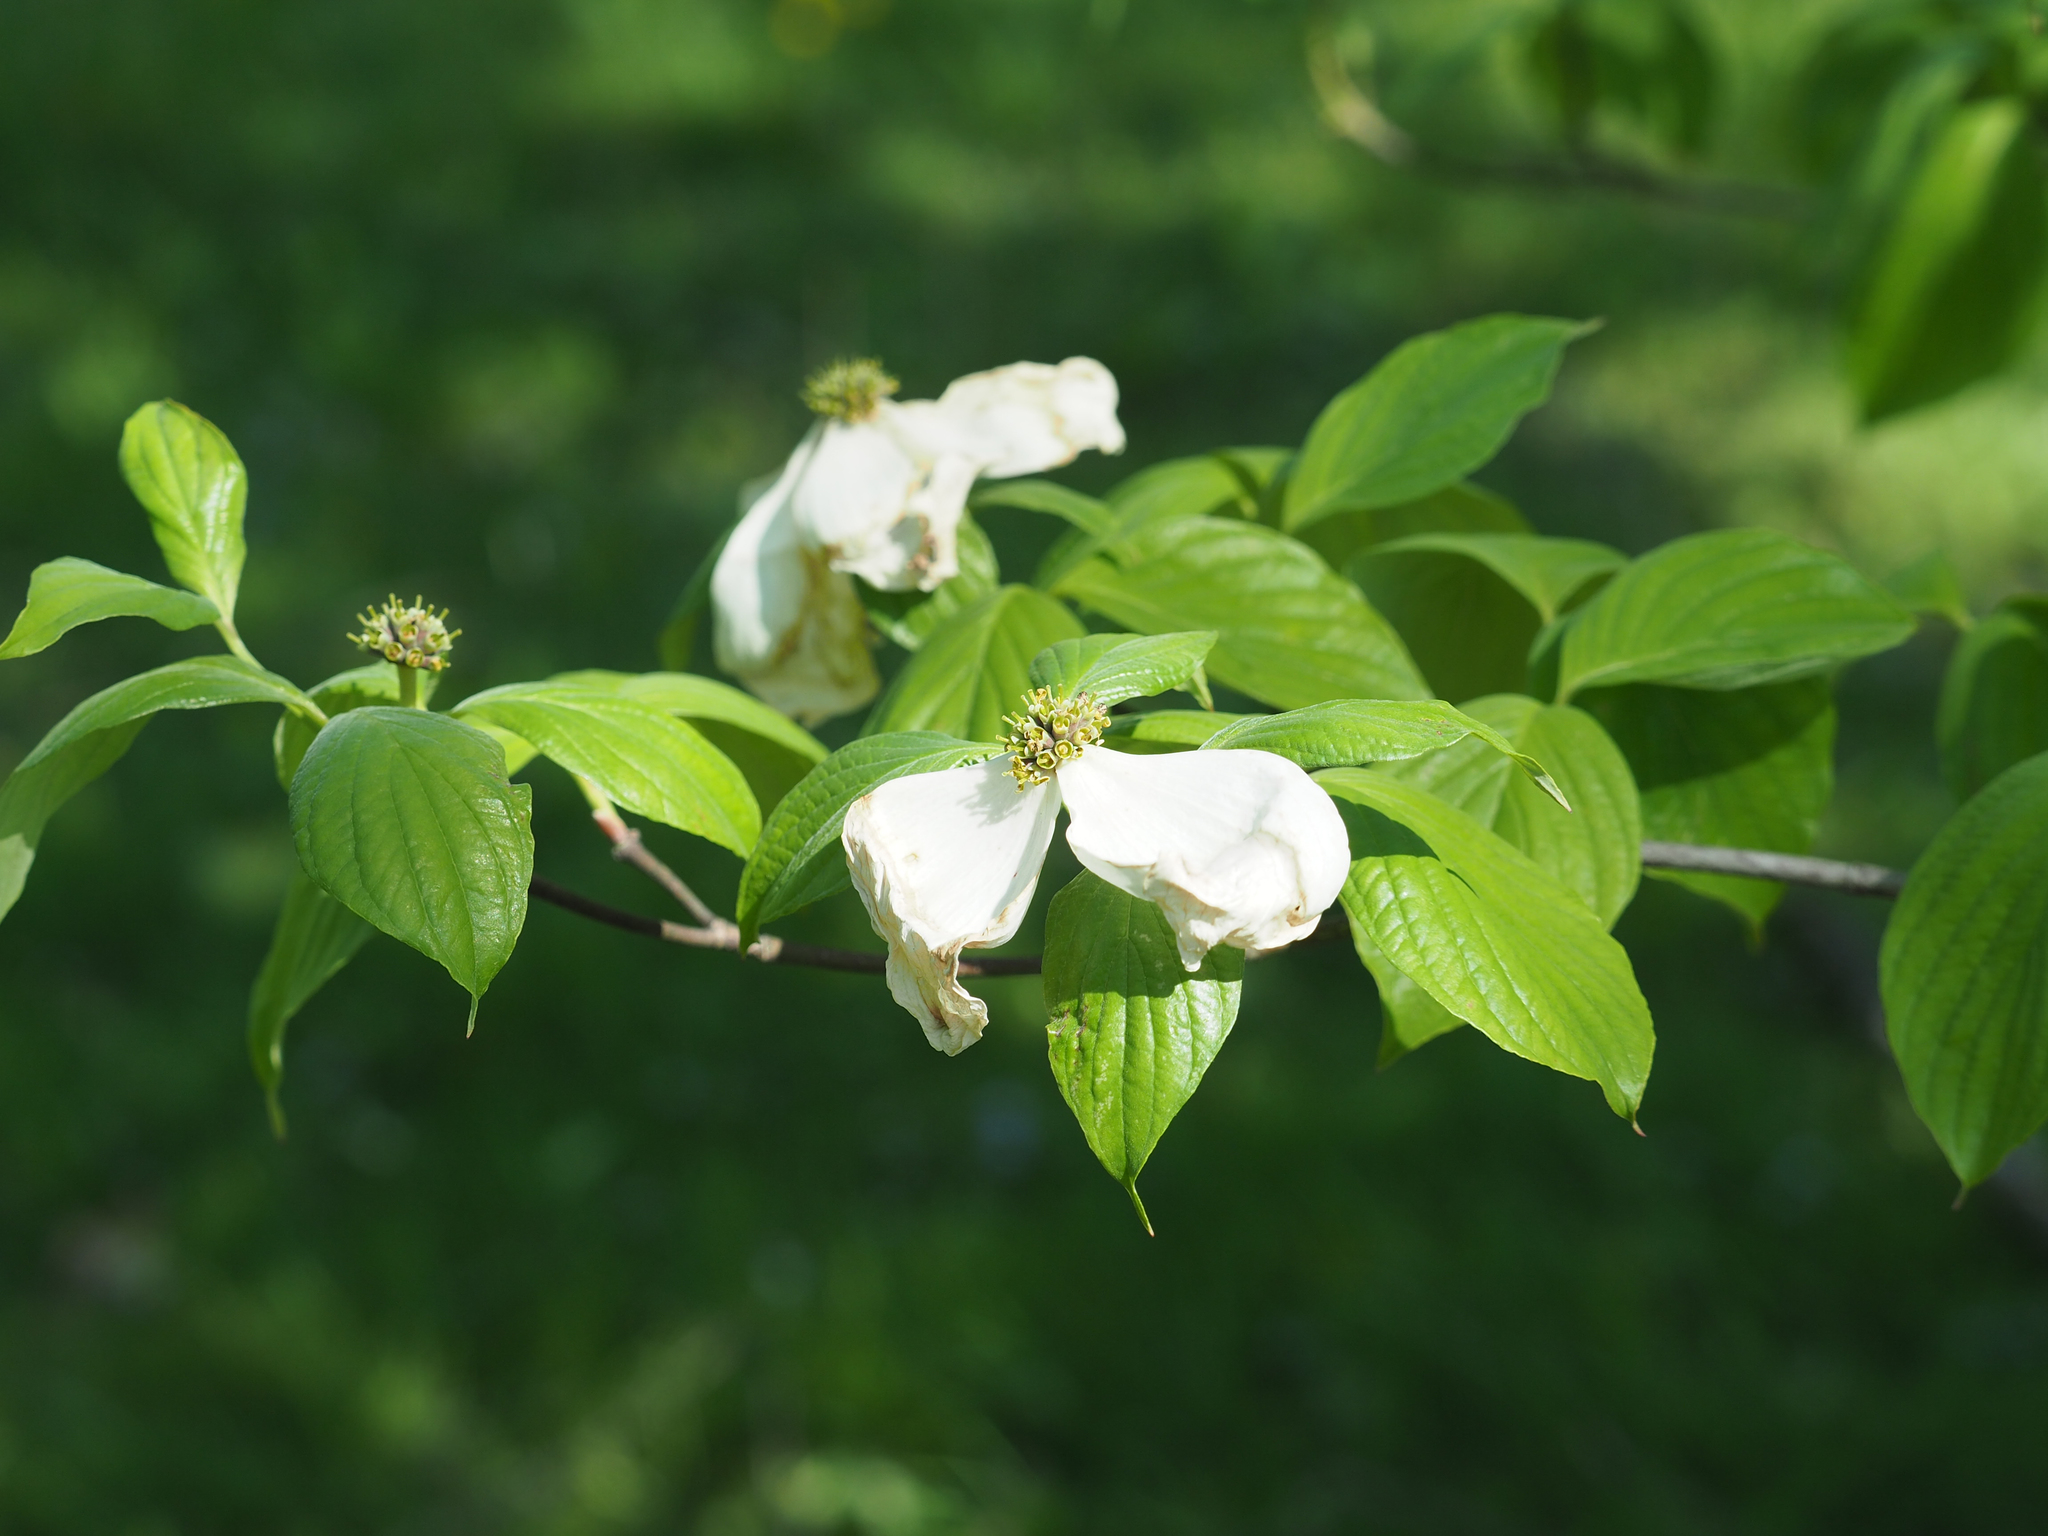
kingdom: Plantae
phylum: Tracheophyta
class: Magnoliopsida
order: Cornales
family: Cornaceae
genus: Cornus
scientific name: Cornus florida
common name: Flowering dogwood
